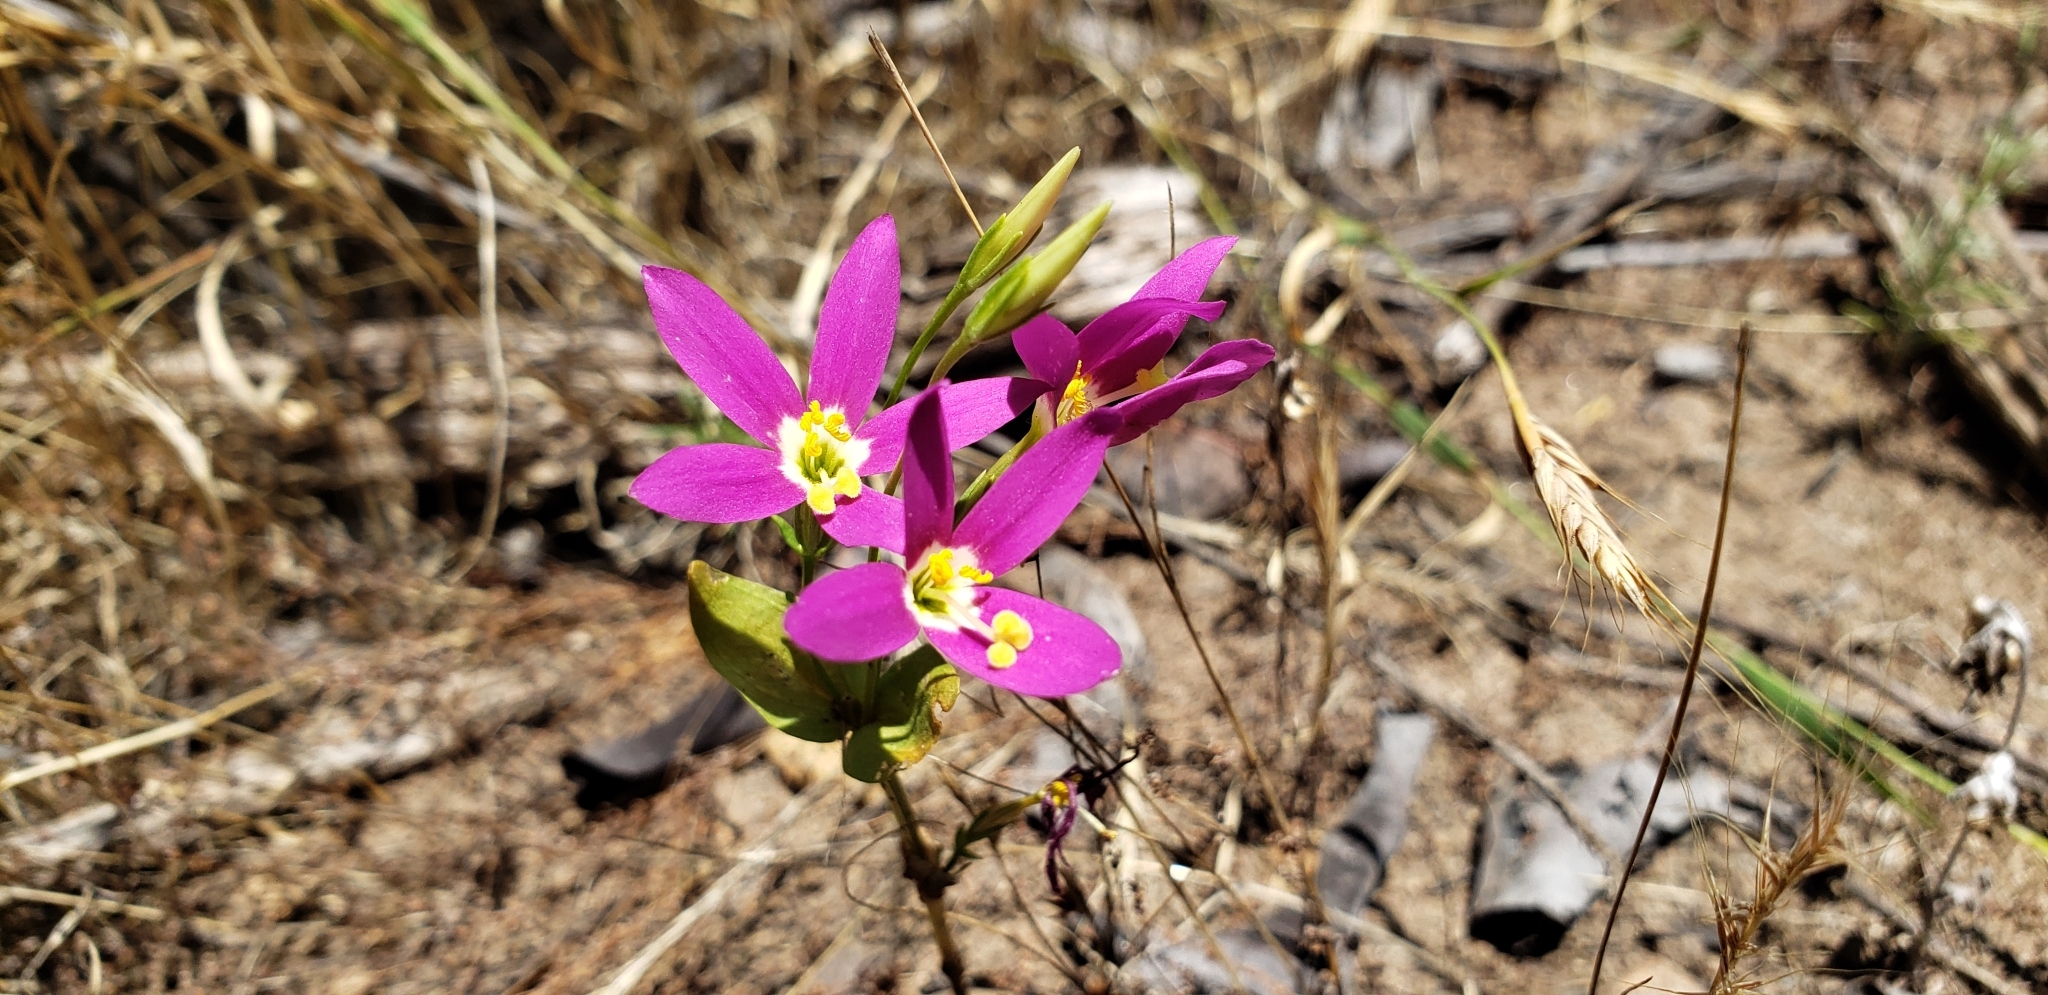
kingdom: Plantae
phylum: Tracheophyta
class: Magnoliopsida
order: Gentianales
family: Gentianaceae
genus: Zeltnera
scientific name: Zeltnera venusta
